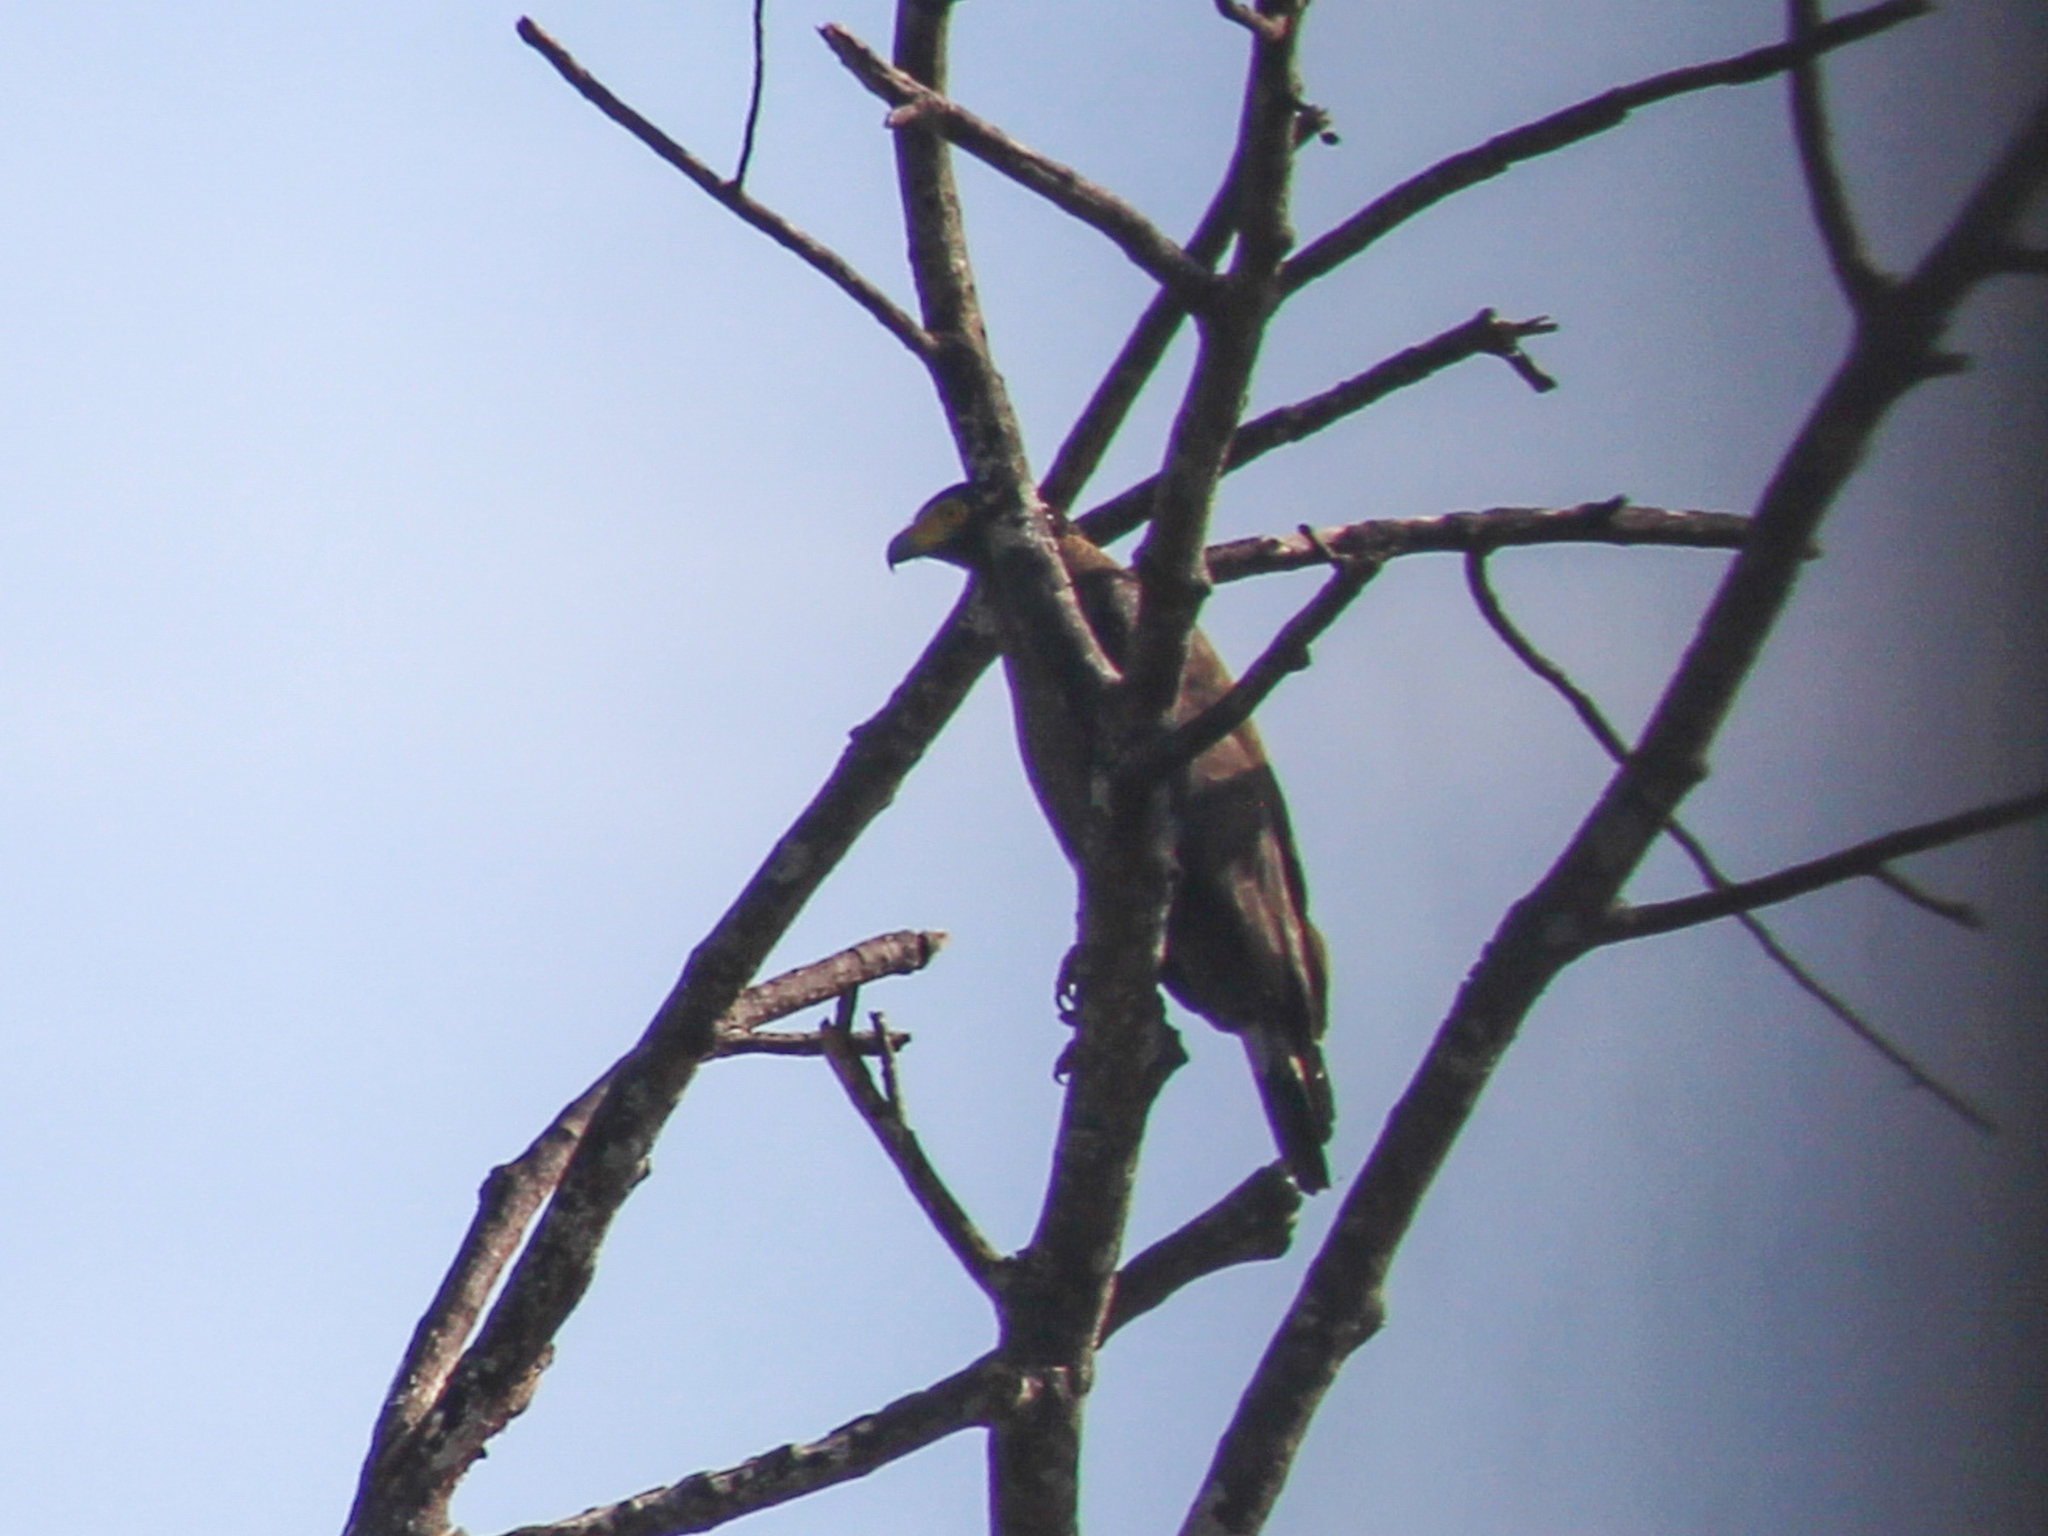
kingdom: Animalia
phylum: Chordata
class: Aves
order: Accipitriformes
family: Accipitridae
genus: Spilornis
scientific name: Spilornis cheela
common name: Crested serpent eagle
